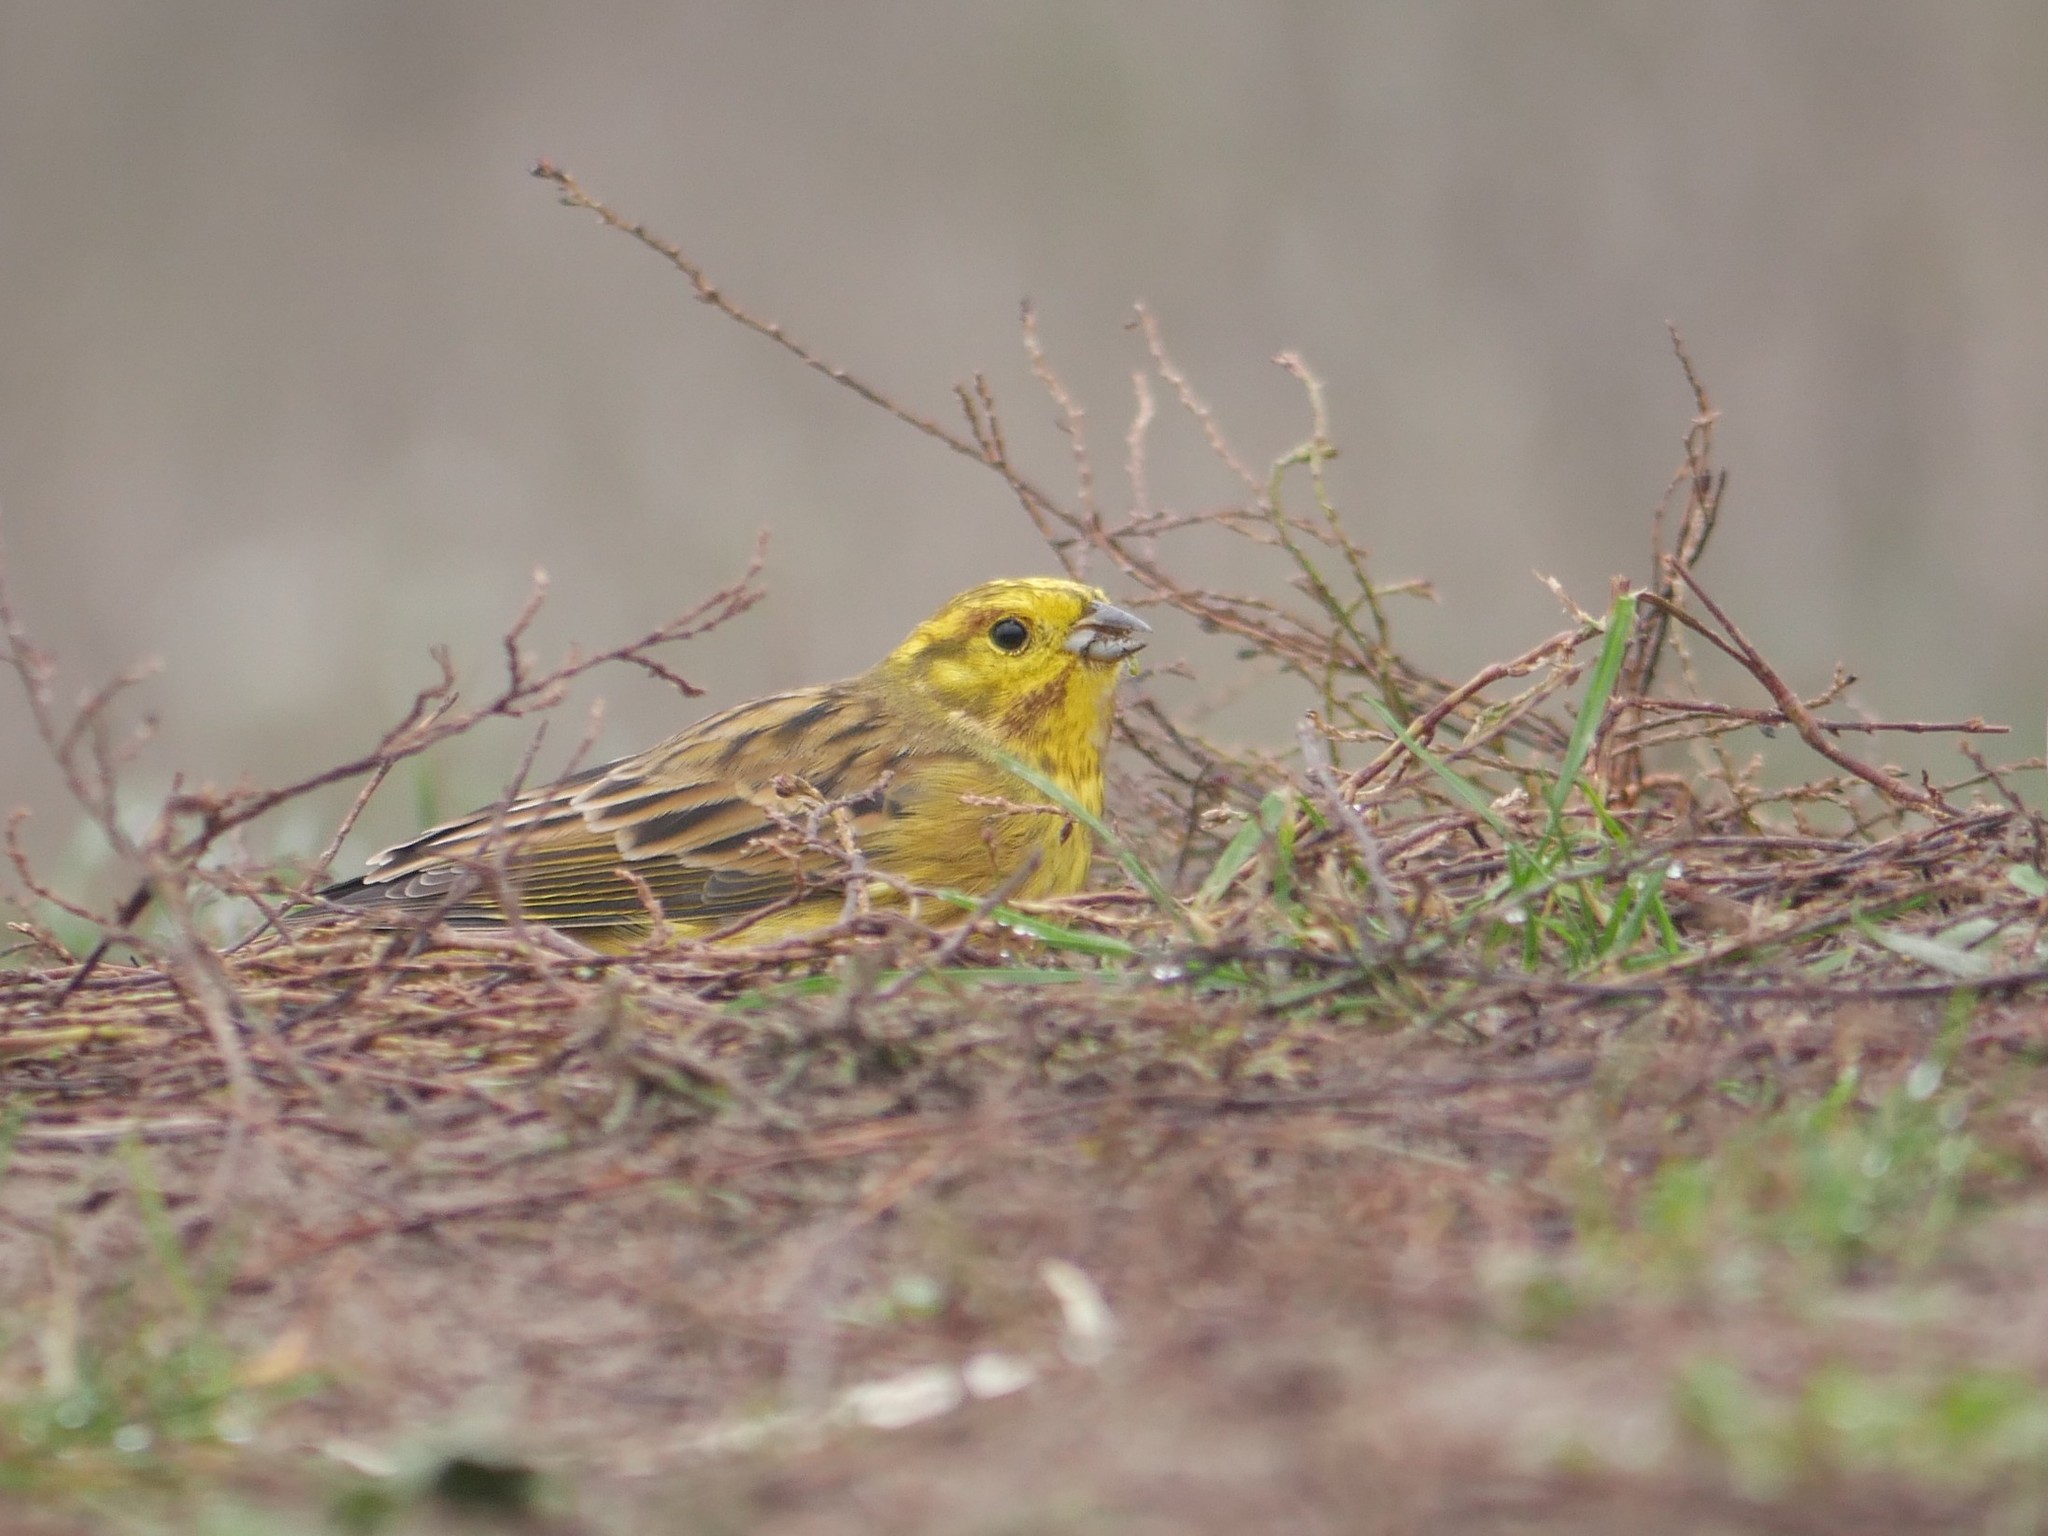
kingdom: Animalia
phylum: Chordata
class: Aves
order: Passeriformes
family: Emberizidae
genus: Emberiza
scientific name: Emberiza citrinella
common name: Yellowhammer
